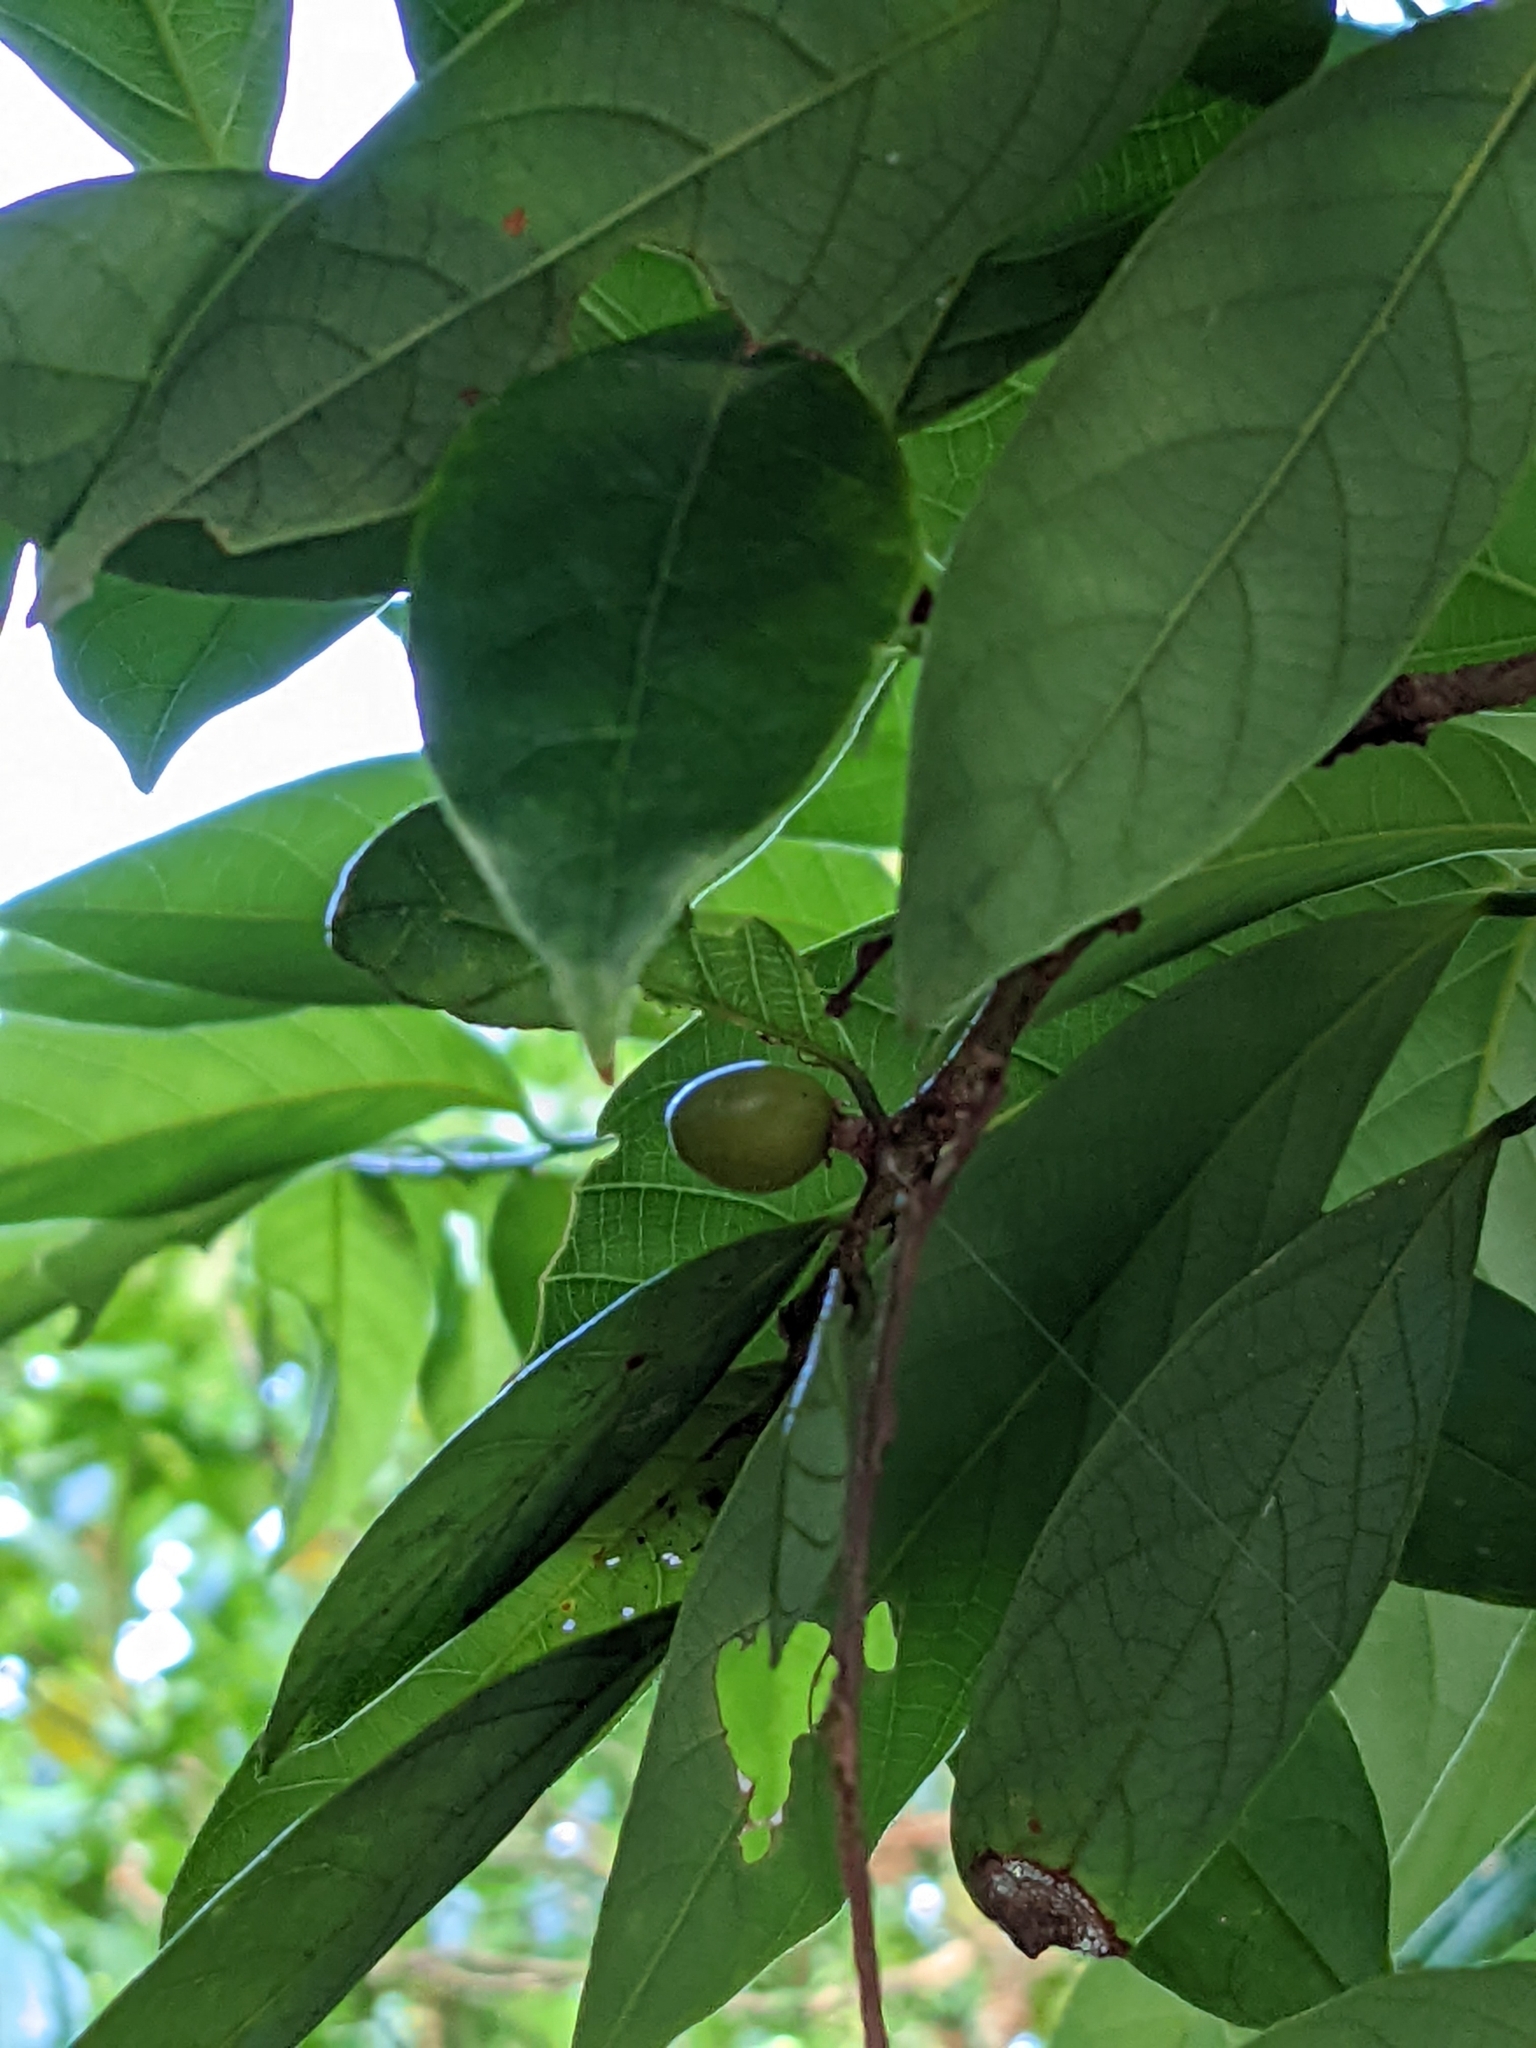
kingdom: Plantae
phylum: Tracheophyta
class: Magnoliopsida
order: Malpighiales
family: Phyllanthaceae
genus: Bridelia
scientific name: Bridelia balansae
